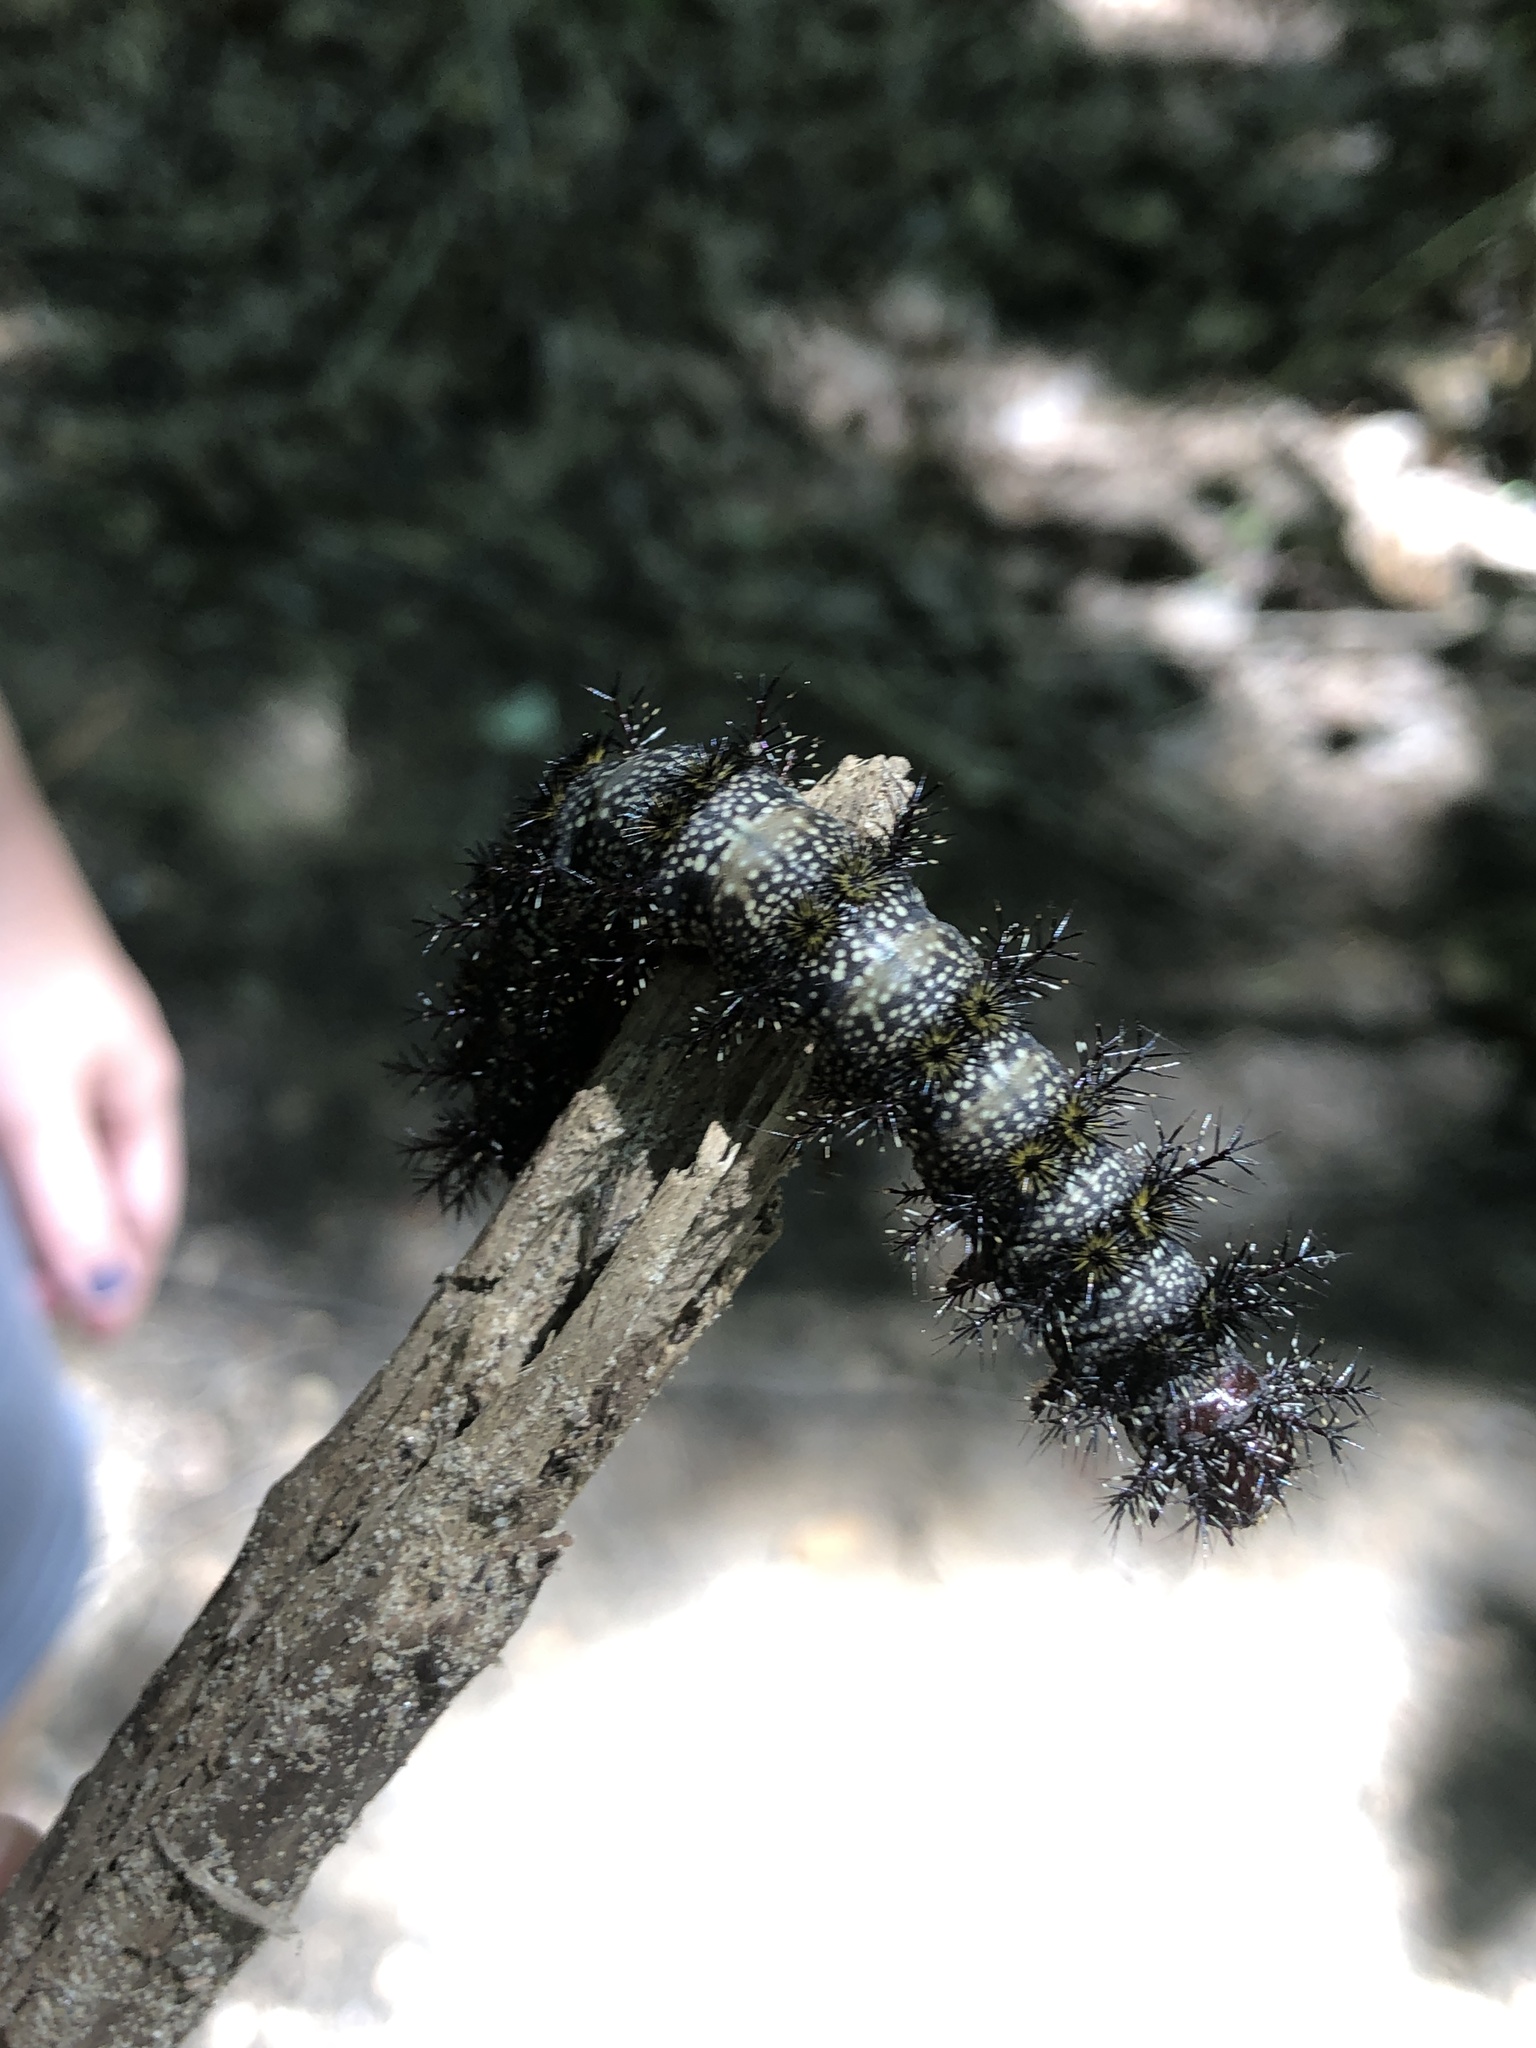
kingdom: Animalia
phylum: Arthropoda
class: Insecta
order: Lepidoptera
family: Saturniidae
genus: Hemileuca
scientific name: Hemileuca maia
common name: Eastern buckmoth
